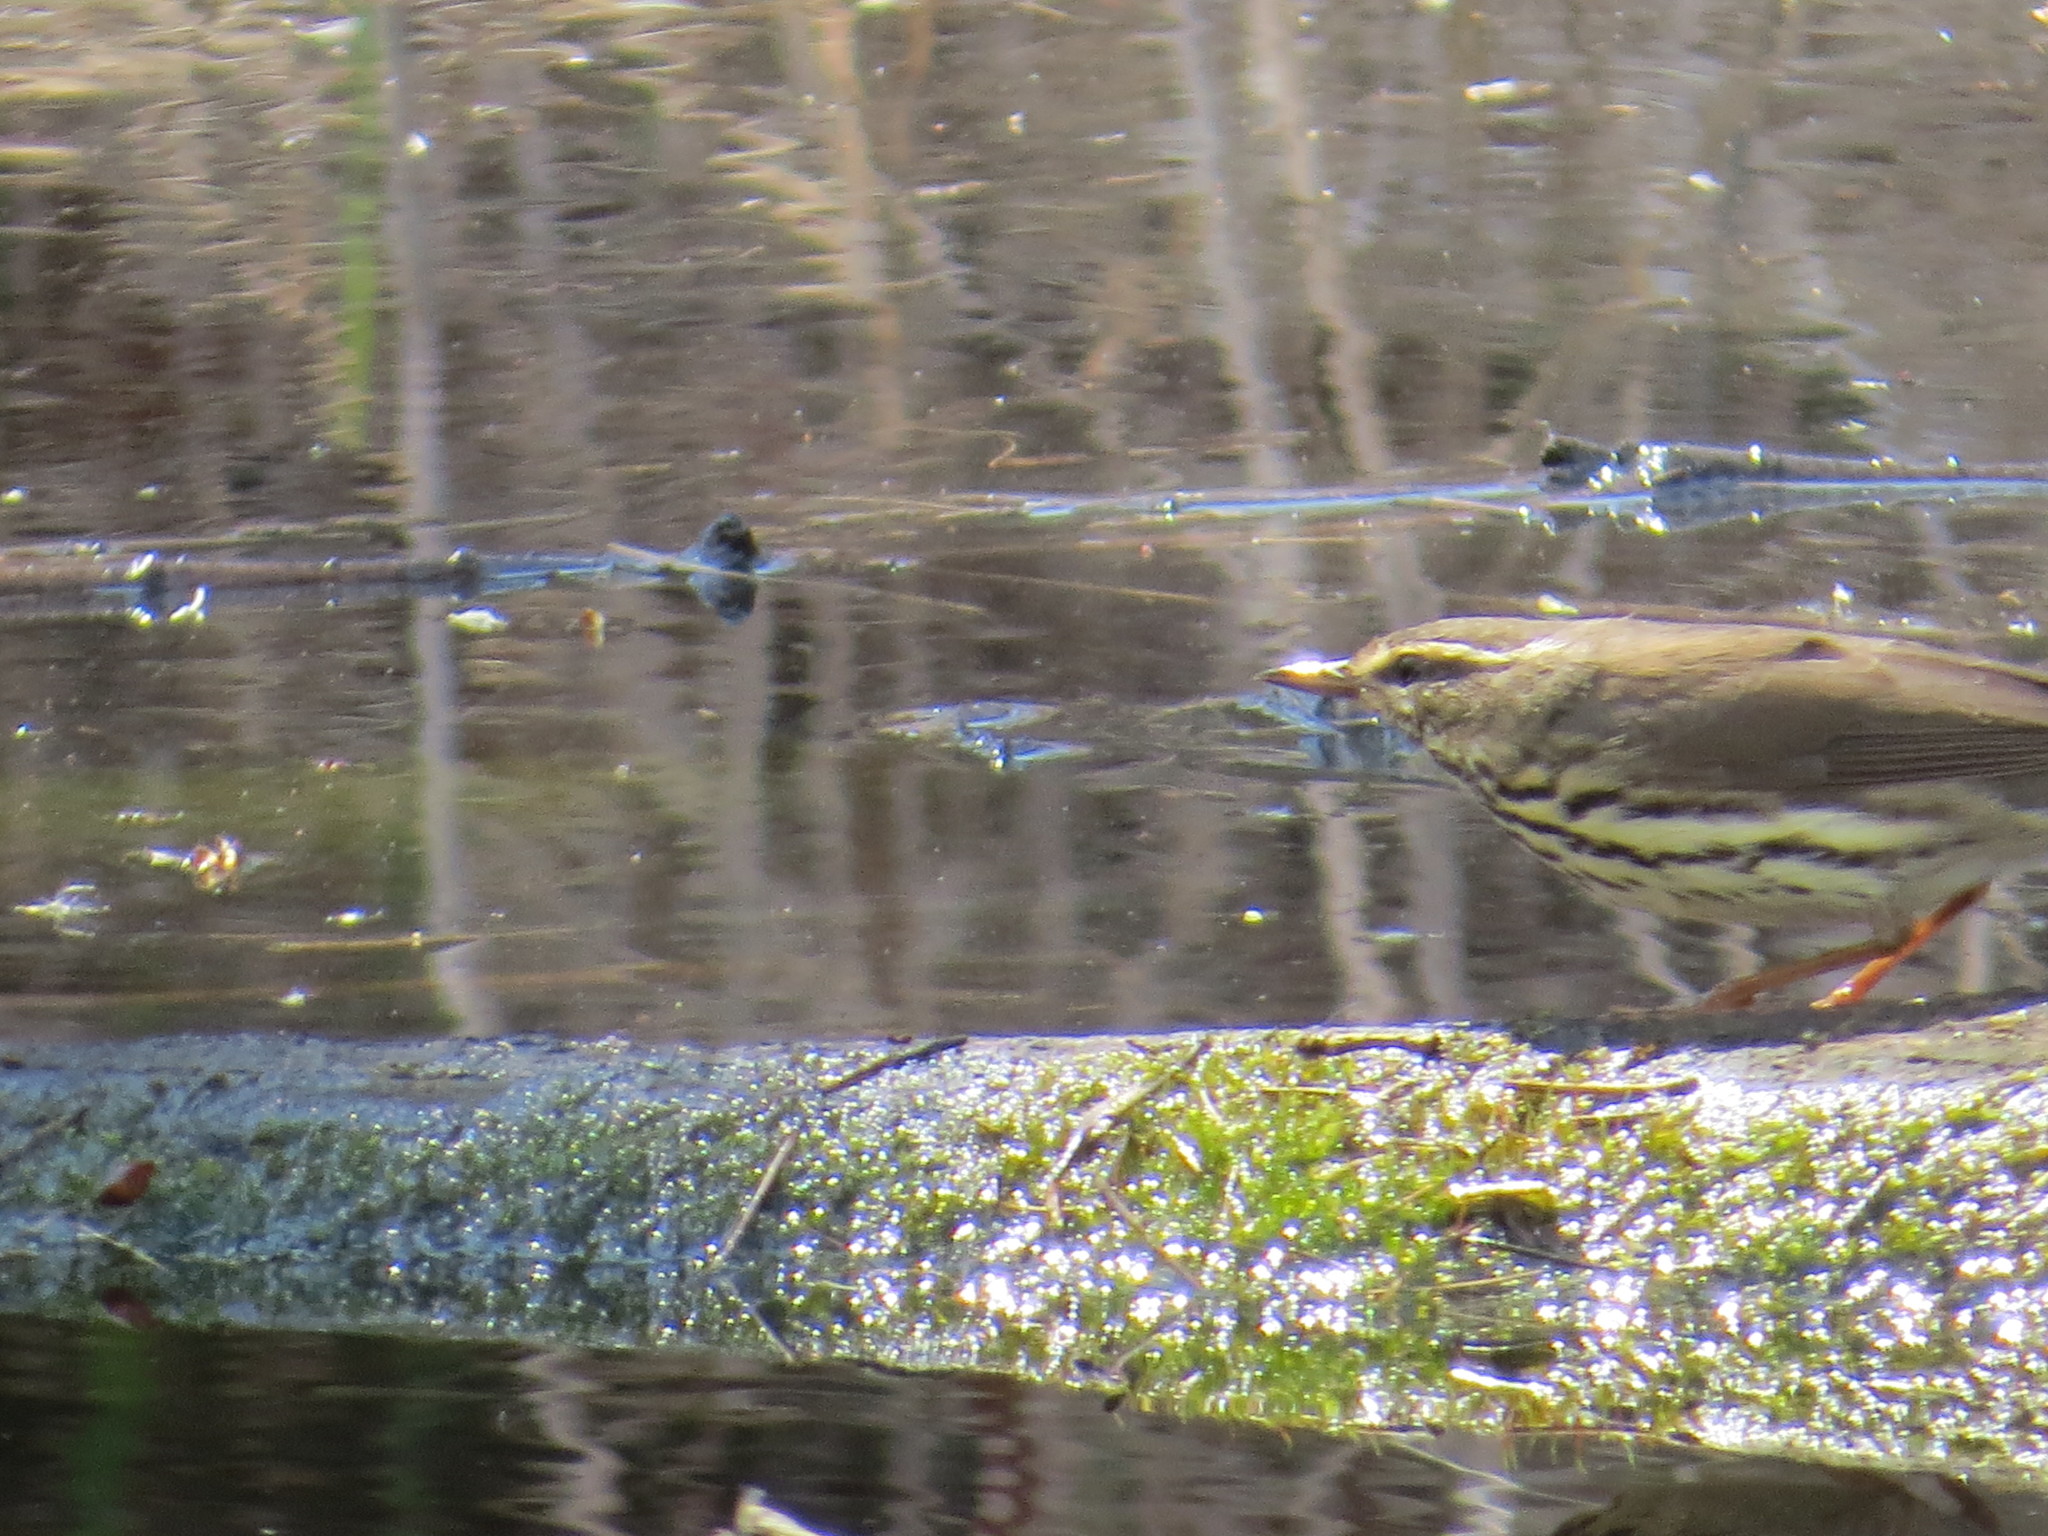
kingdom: Animalia
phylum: Chordata
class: Aves
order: Passeriformes
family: Parulidae
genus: Parkesia
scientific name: Parkesia noveboracensis
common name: Northern waterthrush
